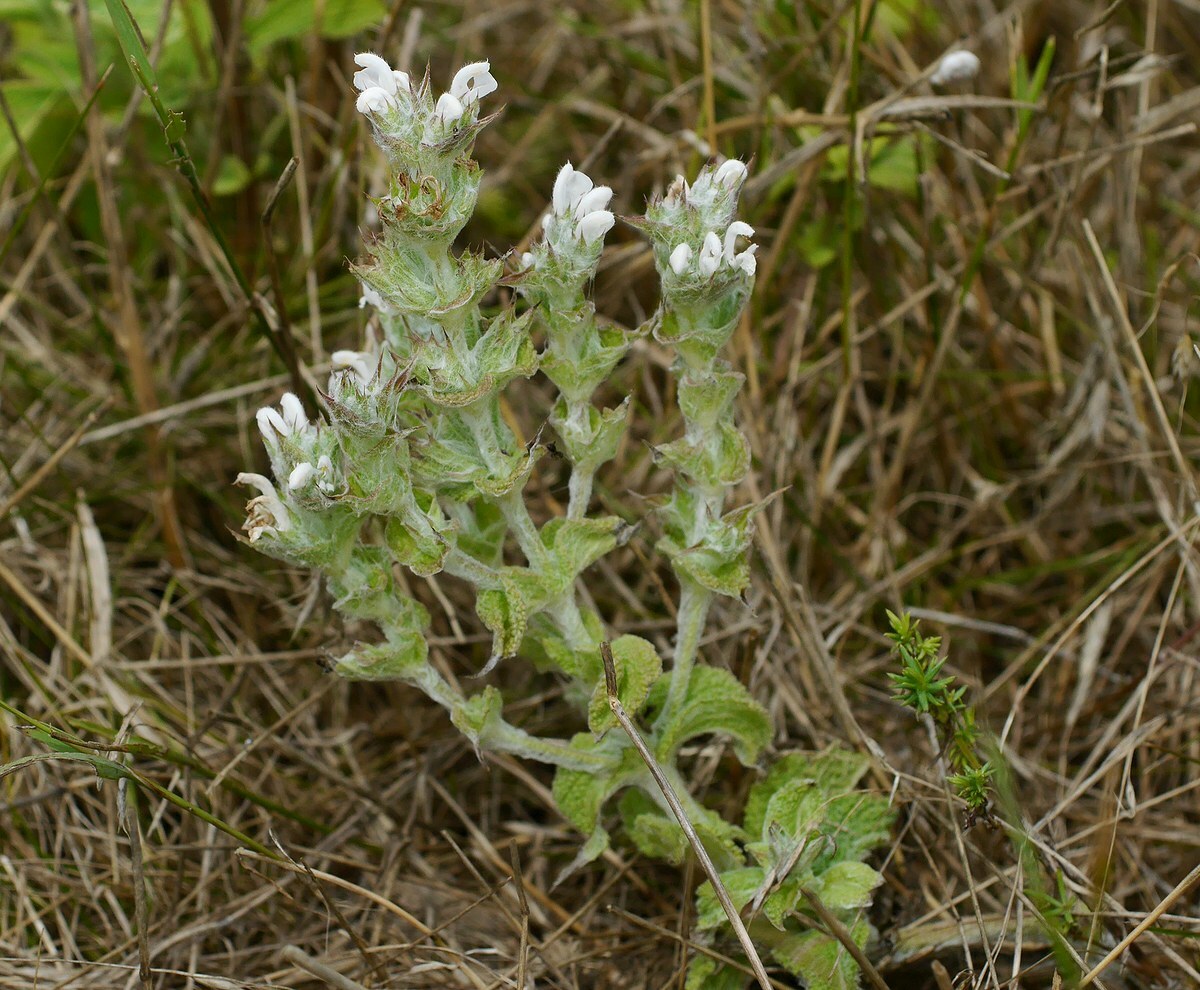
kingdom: Plantae
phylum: Tracheophyta
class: Magnoliopsida
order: Lamiales
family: Lamiaceae
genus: Salvia
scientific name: Salvia aethiopis
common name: Mediterranean sage
